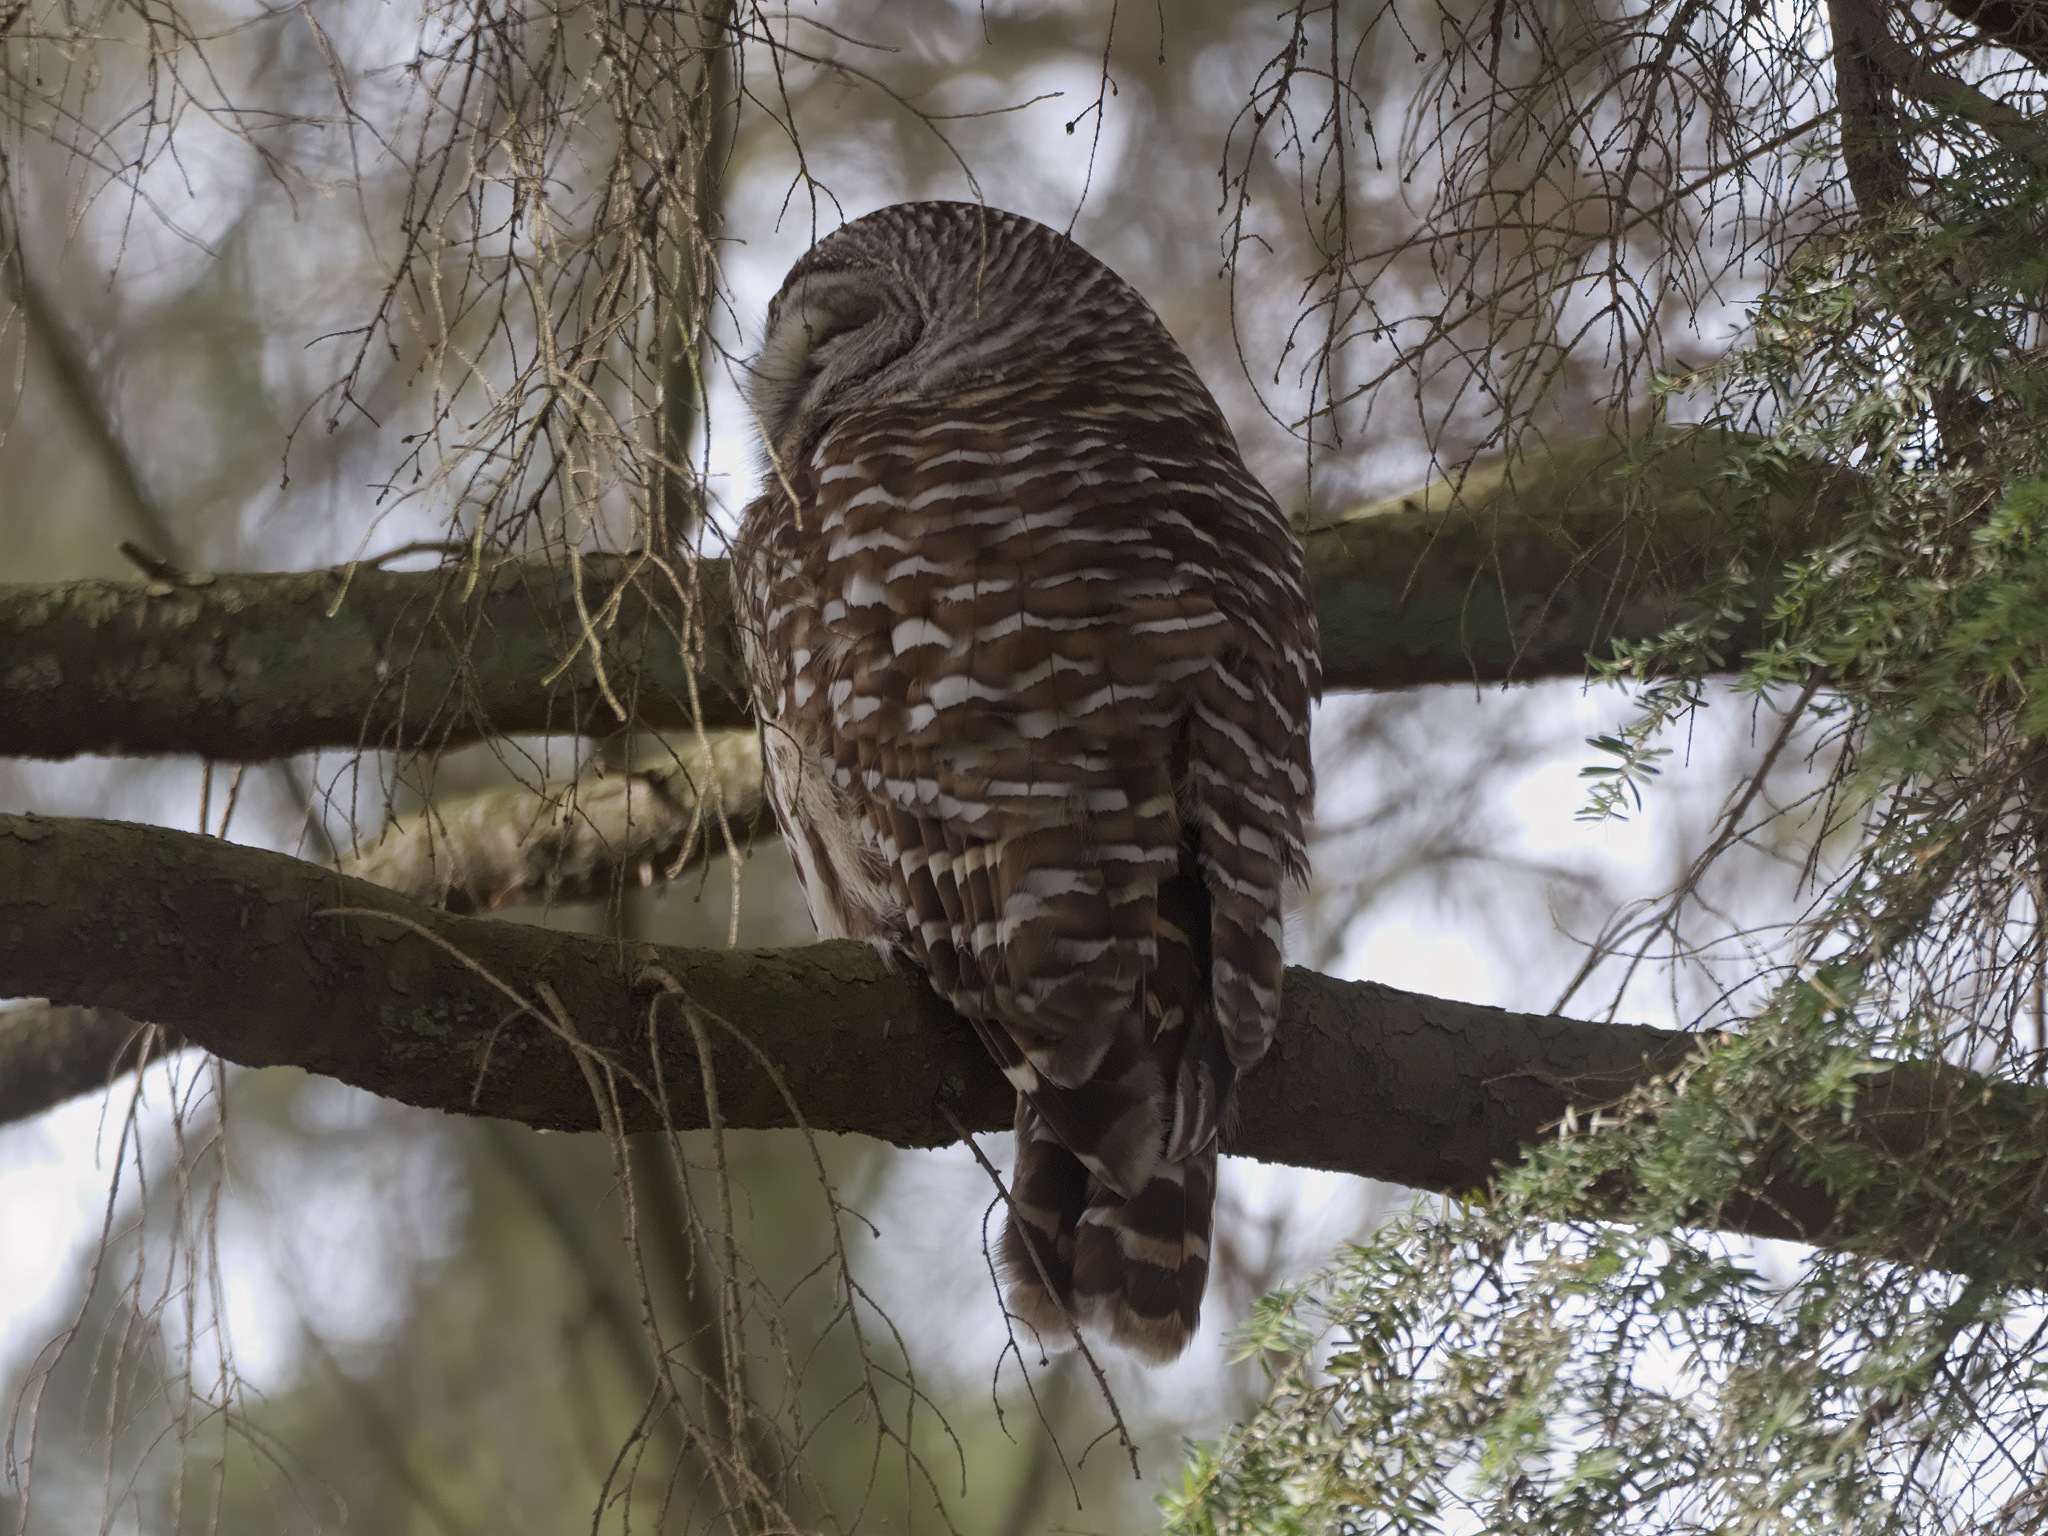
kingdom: Animalia
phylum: Chordata
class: Aves
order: Strigiformes
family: Strigidae
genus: Strix
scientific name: Strix varia
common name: Barred owl
